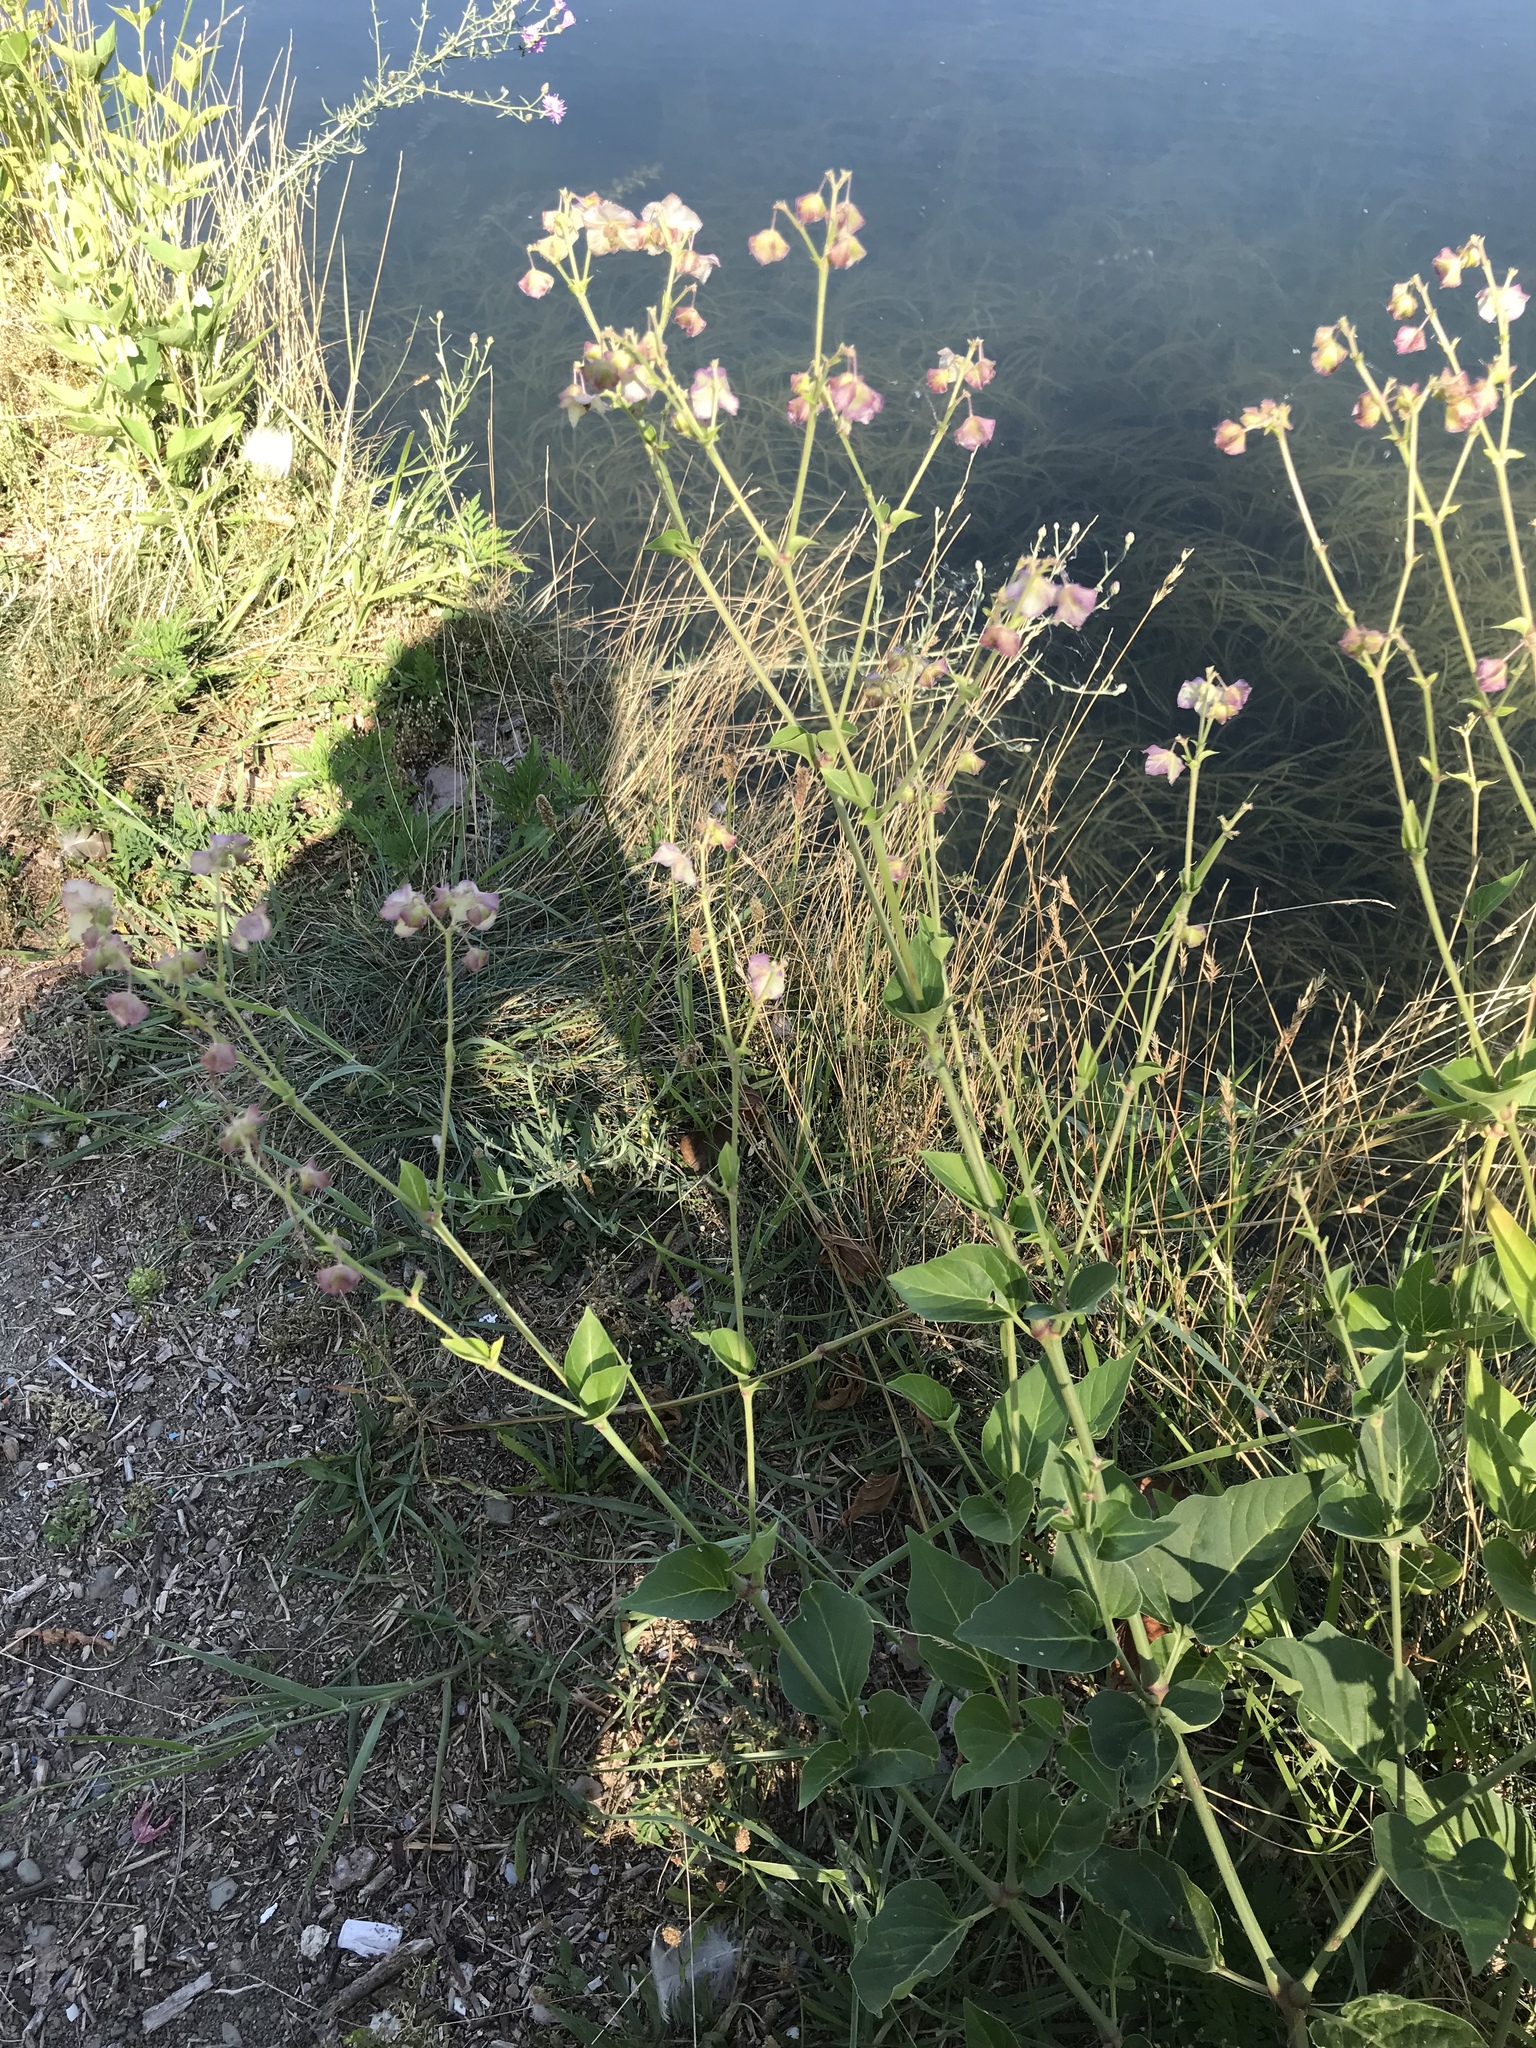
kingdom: Plantae
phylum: Tracheophyta
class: Magnoliopsida
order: Caryophyllales
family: Nyctaginaceae
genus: Mirabilis
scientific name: Mirabilis albida
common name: Hairy four-o'clock
